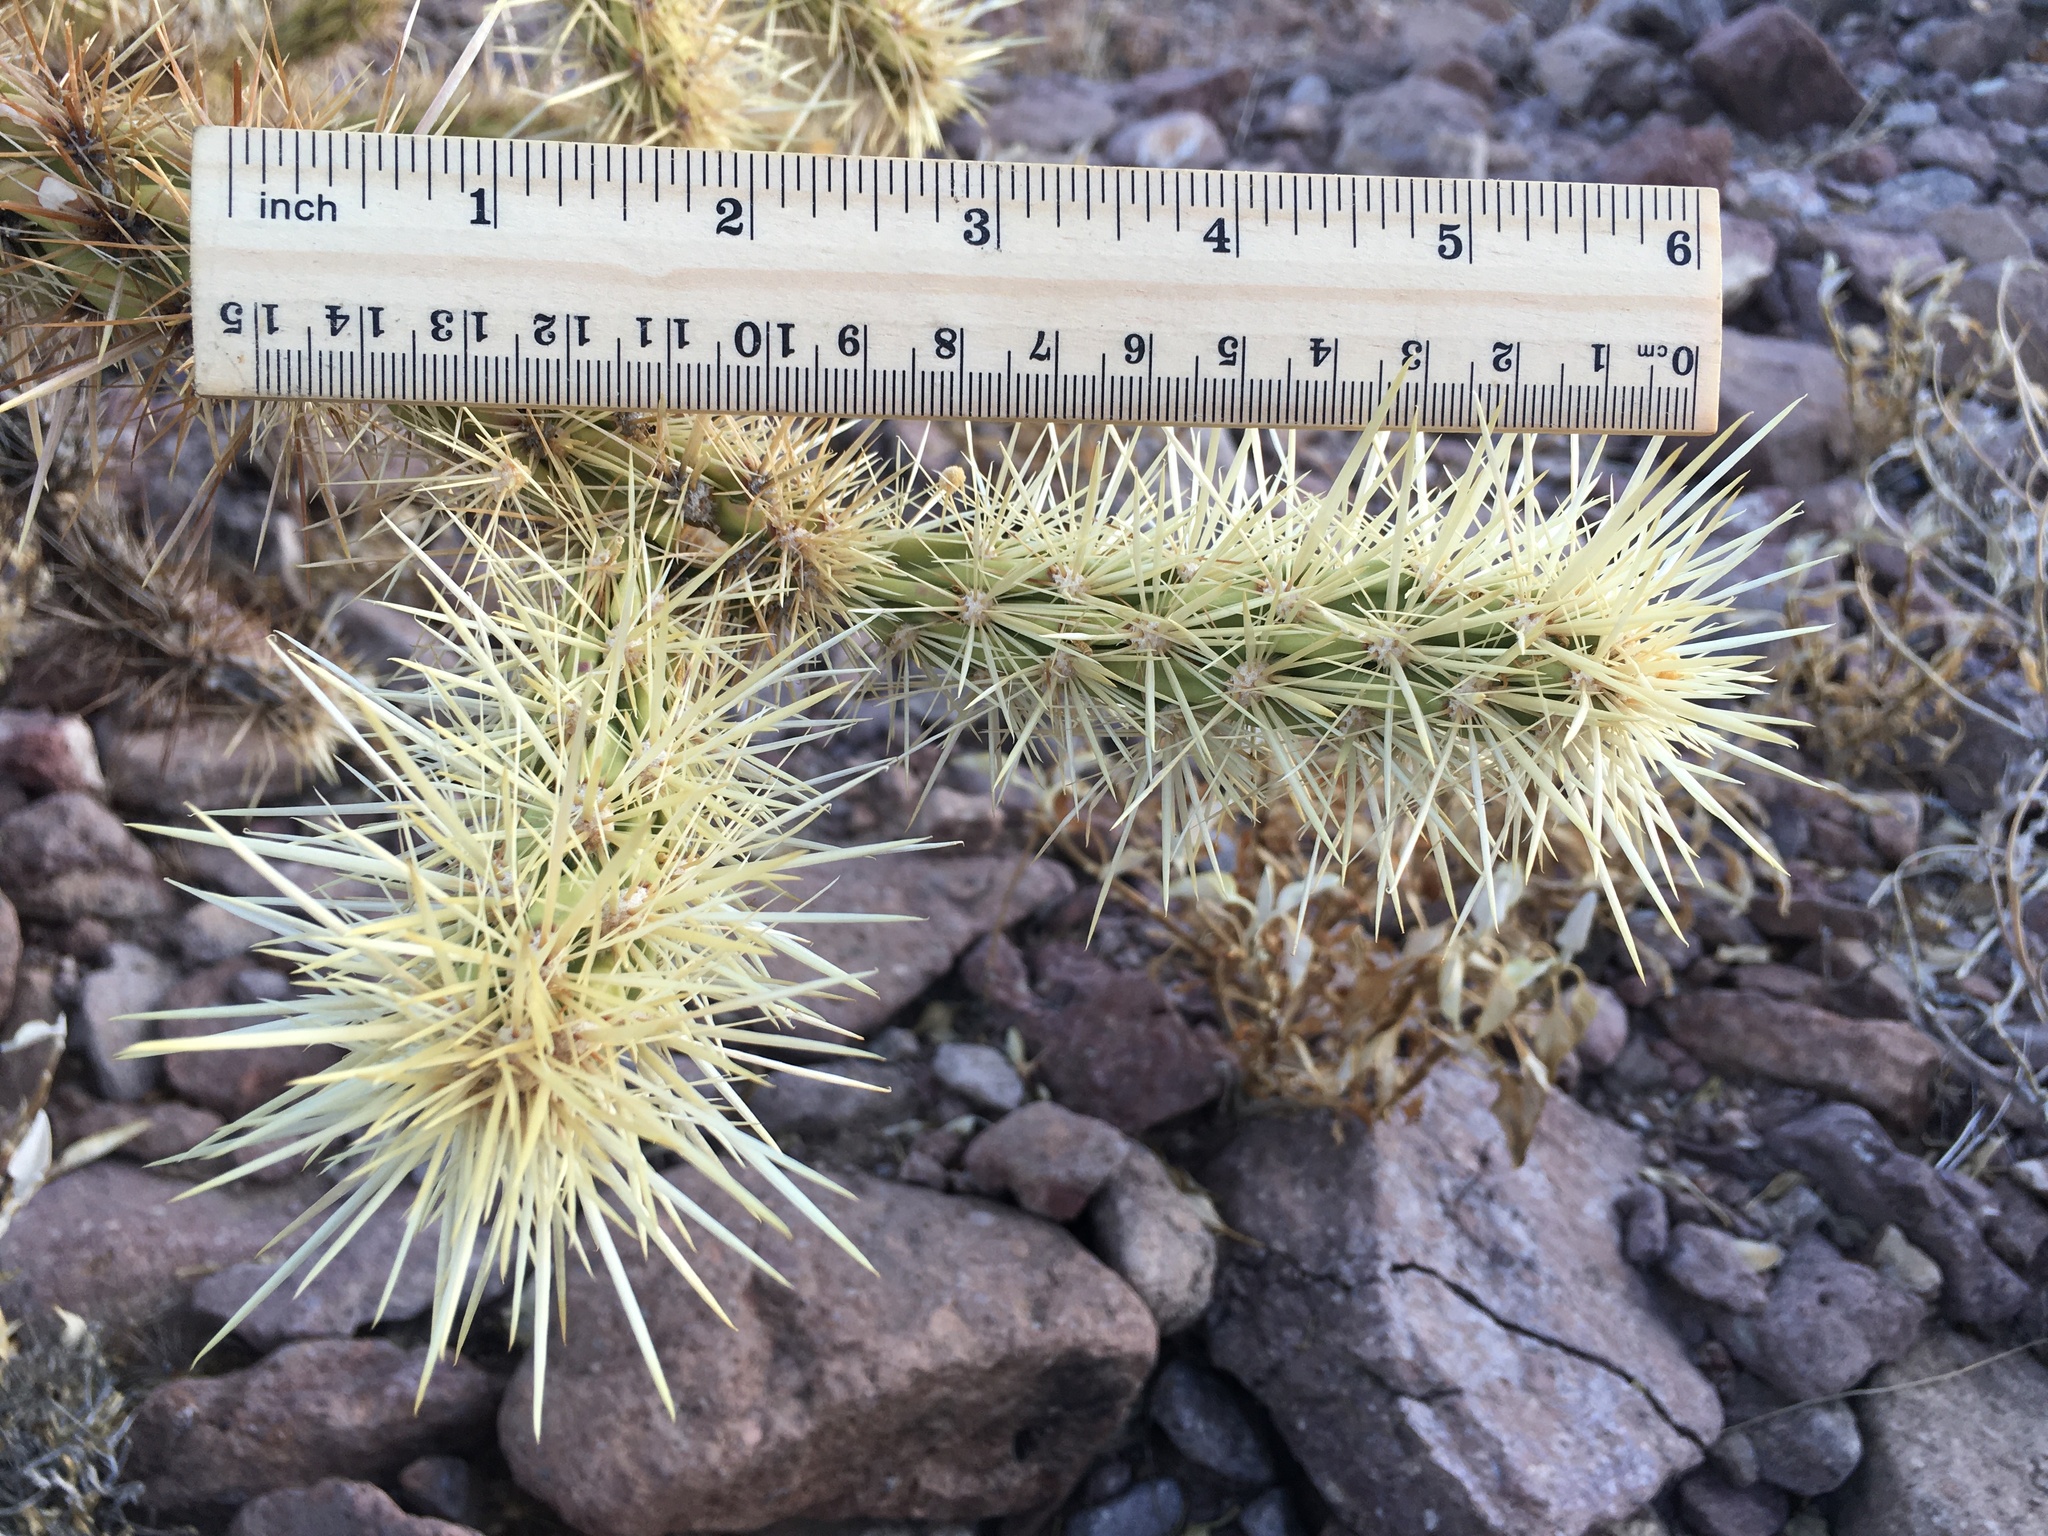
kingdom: Plantae
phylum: Tracheophyta
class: Magnoliopsida
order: Caryophyllales
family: Cactaceae
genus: Cylindropuntia
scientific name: Cylindropuntia acanthocarpa
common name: Buckhorn cholla
